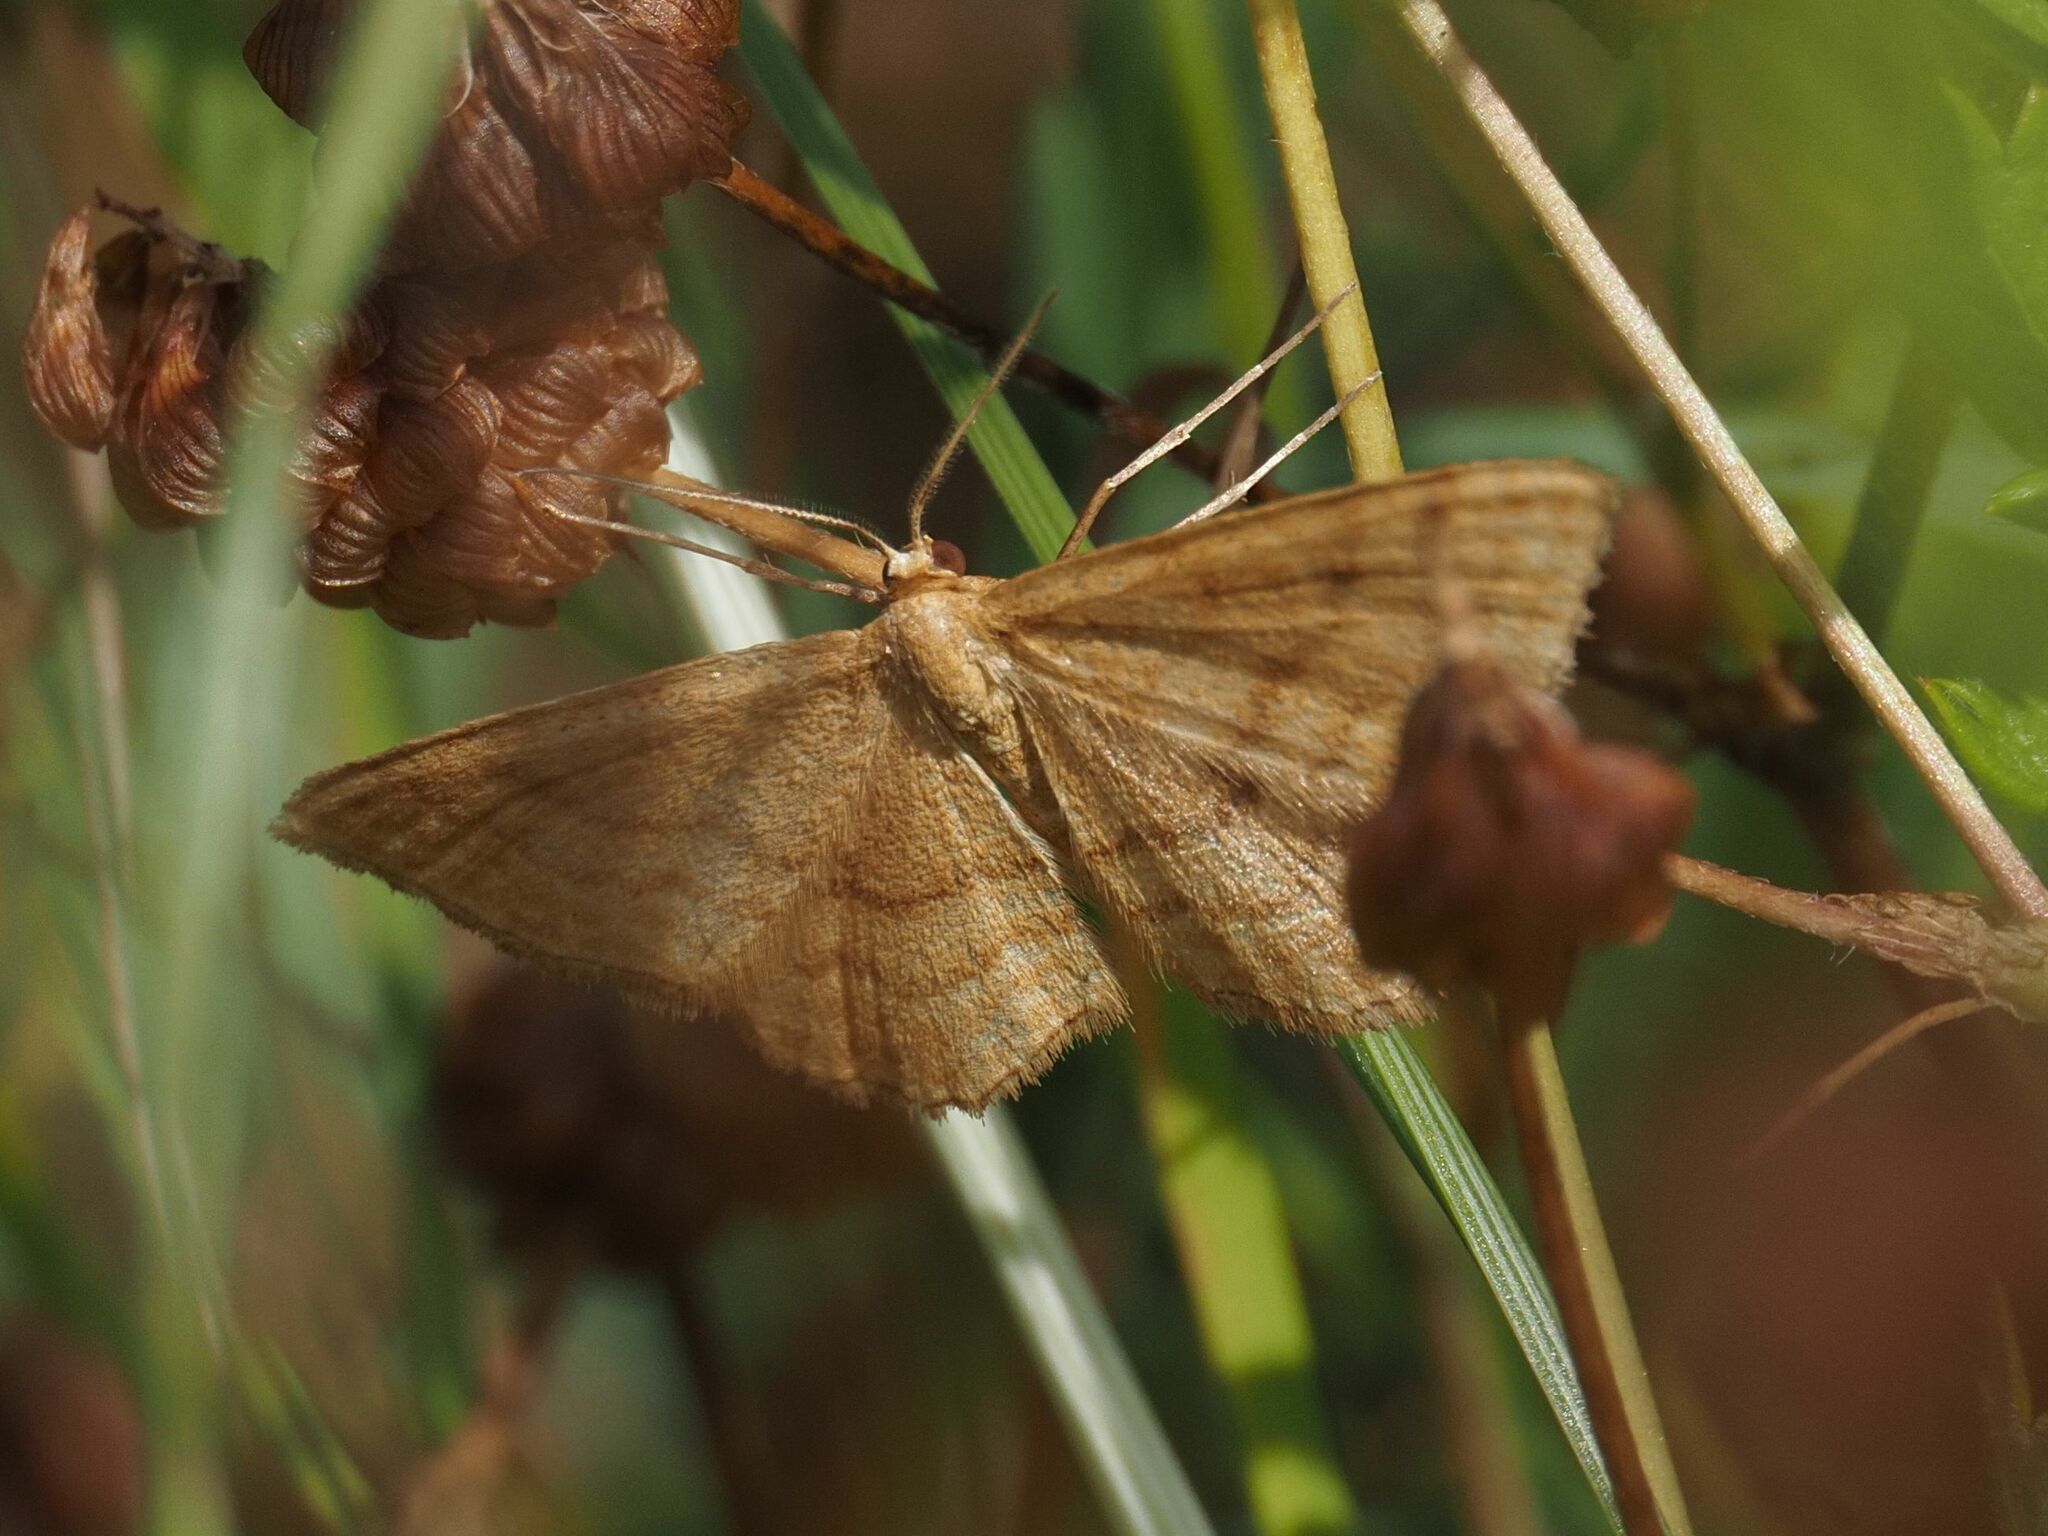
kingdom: Animalia
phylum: Arthropoda
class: Insecta
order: Lepidoptera
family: Geometridae
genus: Idaea
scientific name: Idaea ochrata
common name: Bright wave
